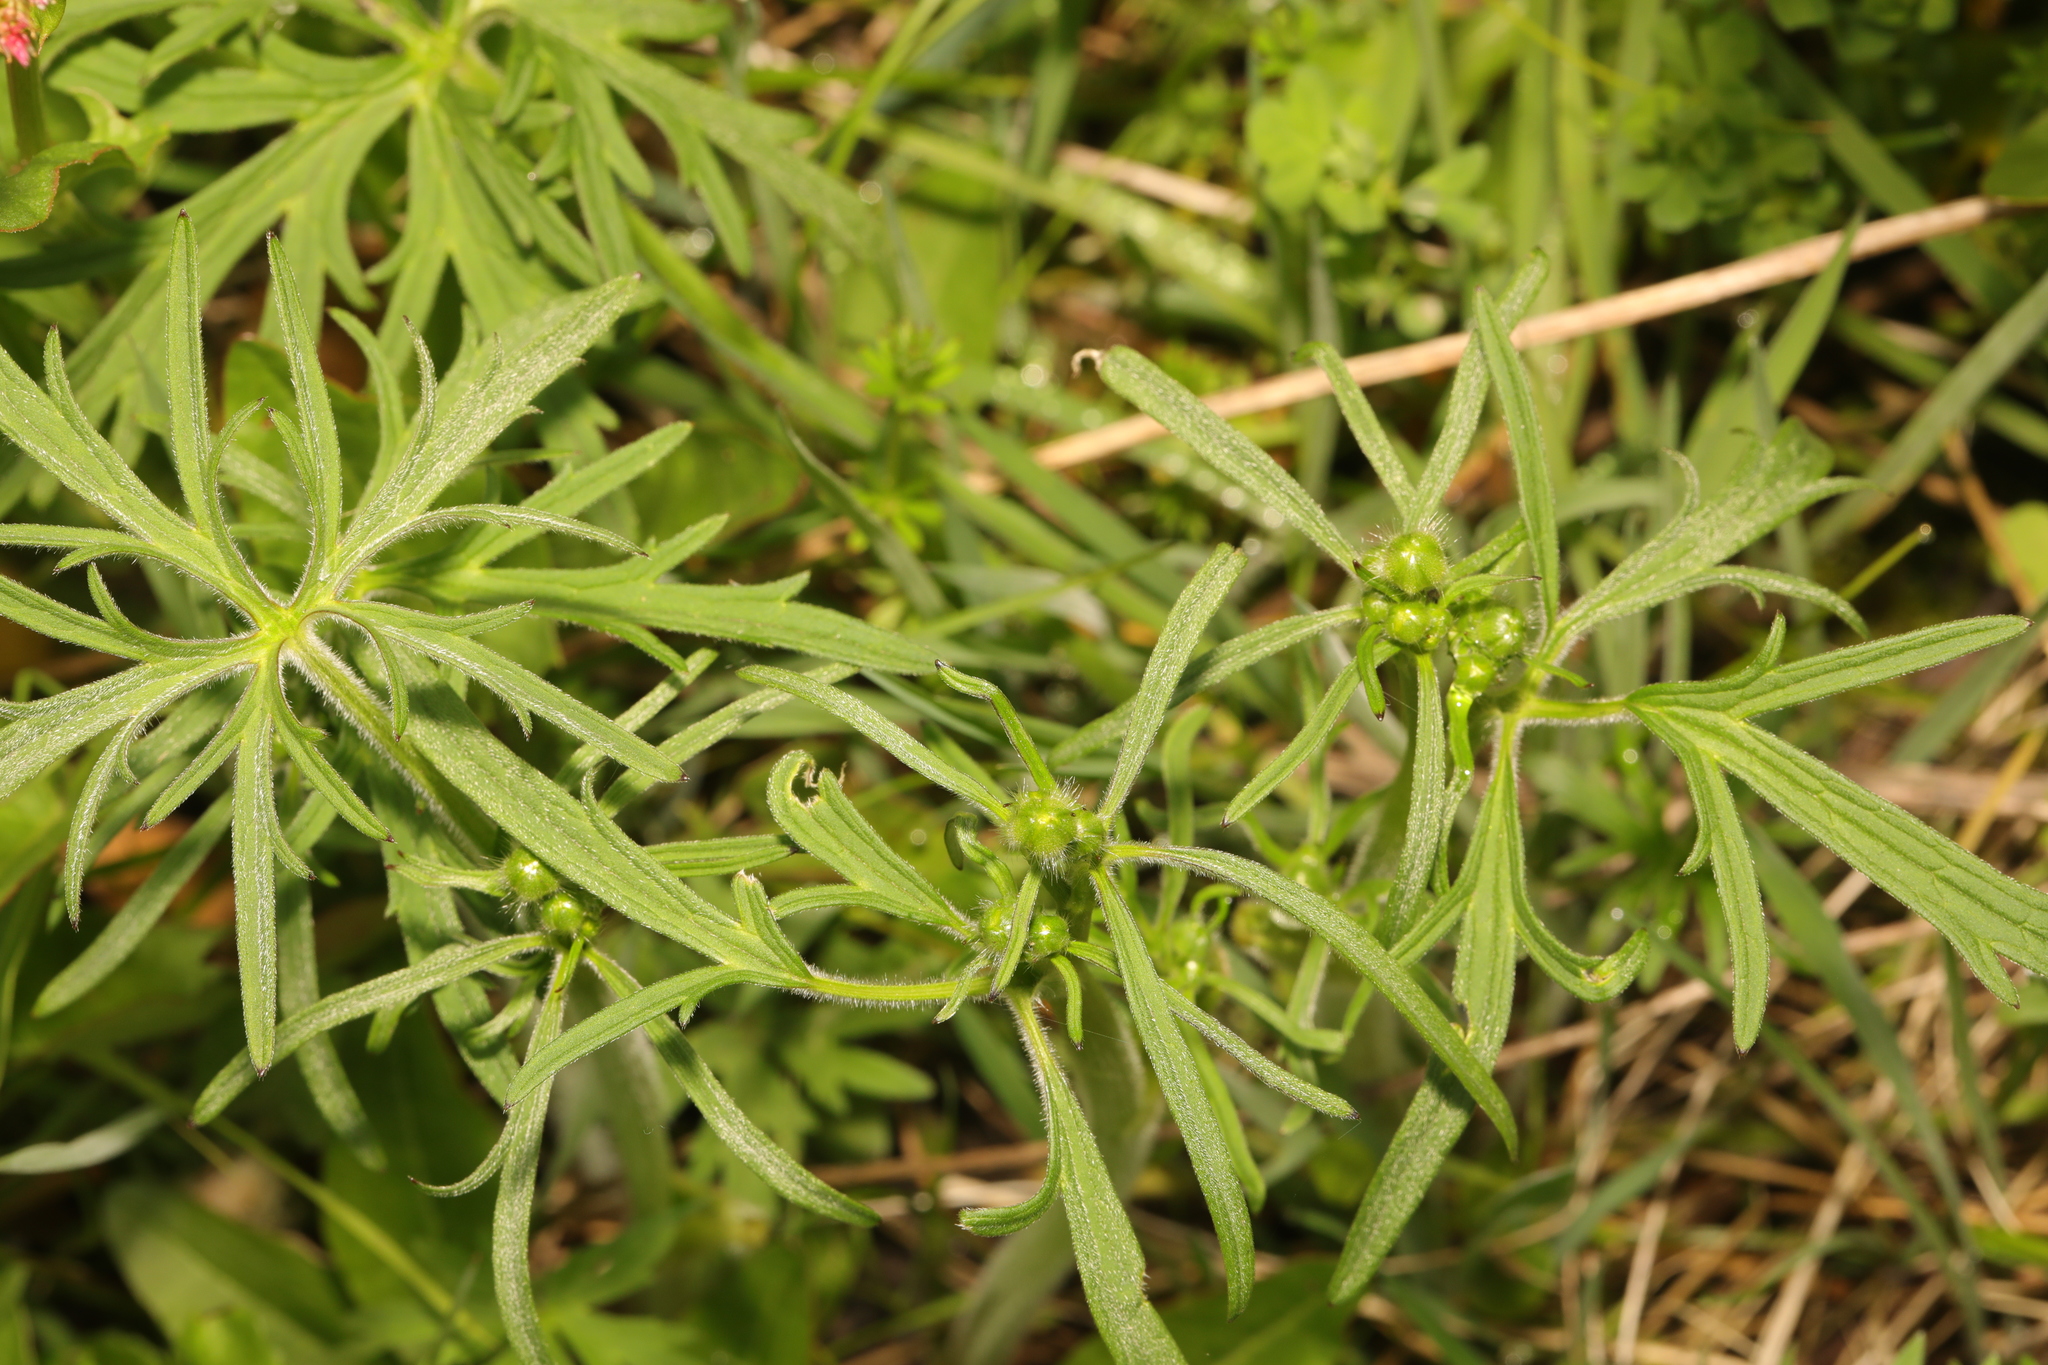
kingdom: Plantae
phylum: Tracheophyta
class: Magnoliopsida
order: Ranunculales
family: Ranunculaceae
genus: Ranunculus
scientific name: Ranunculus acris
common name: Meadow buttercup
